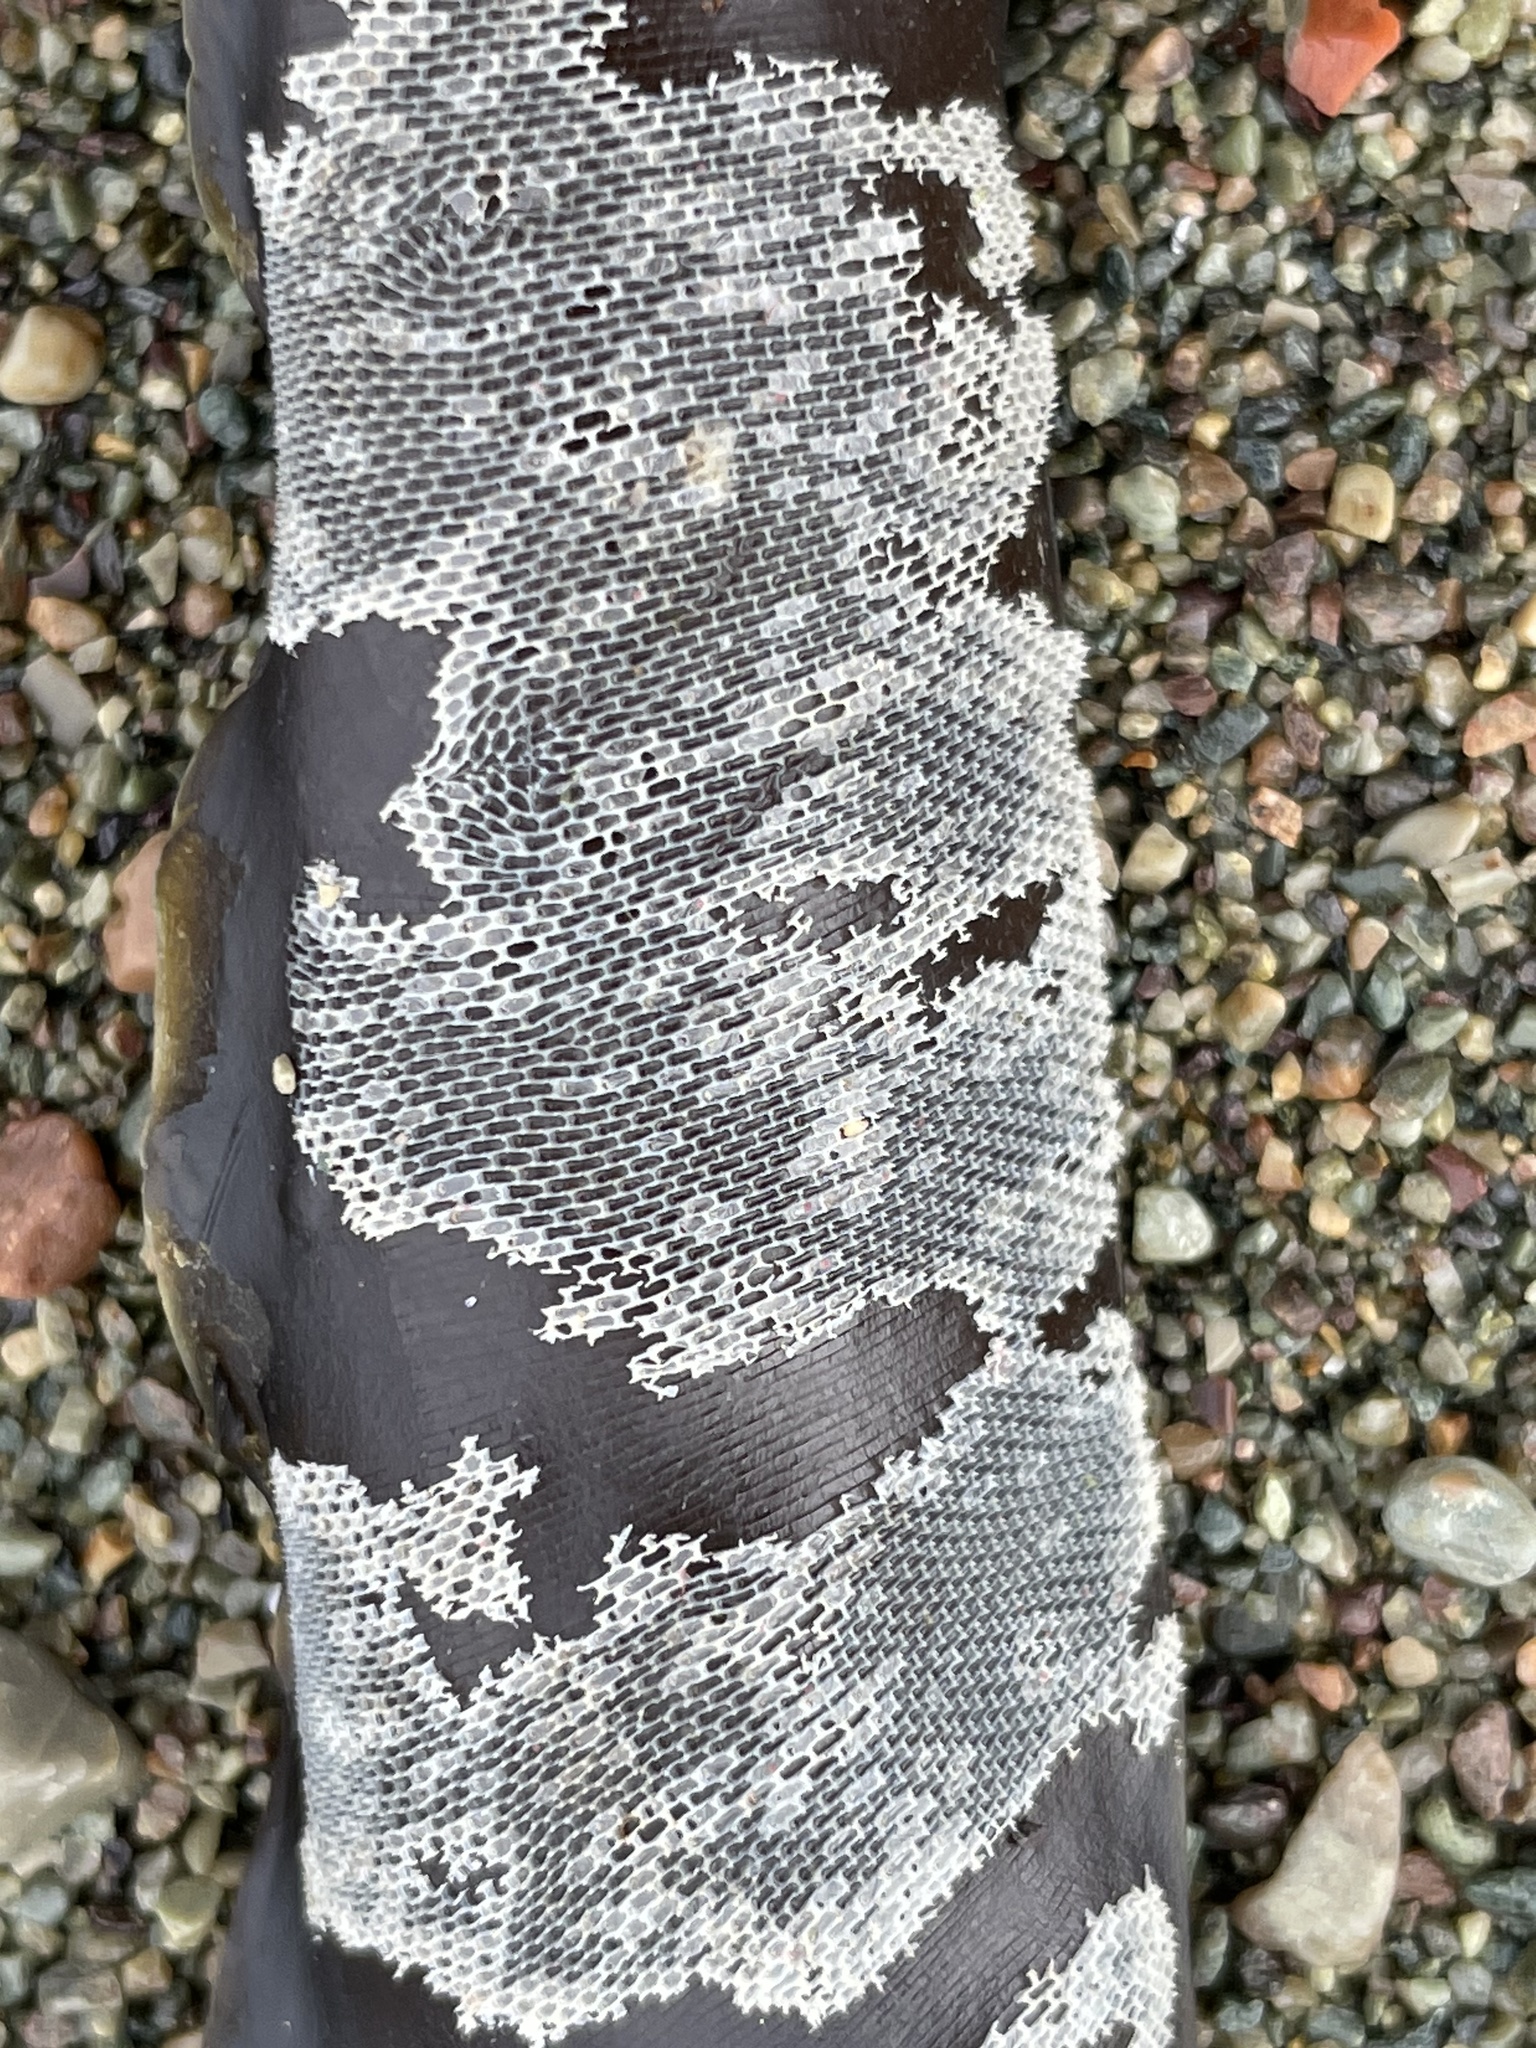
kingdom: Animalia
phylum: Bryozoa
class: Gymnolaemata
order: Cheilostomatida
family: Membraniporidae
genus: Membranipora
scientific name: Membranipora membranacea
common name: Sea mat
